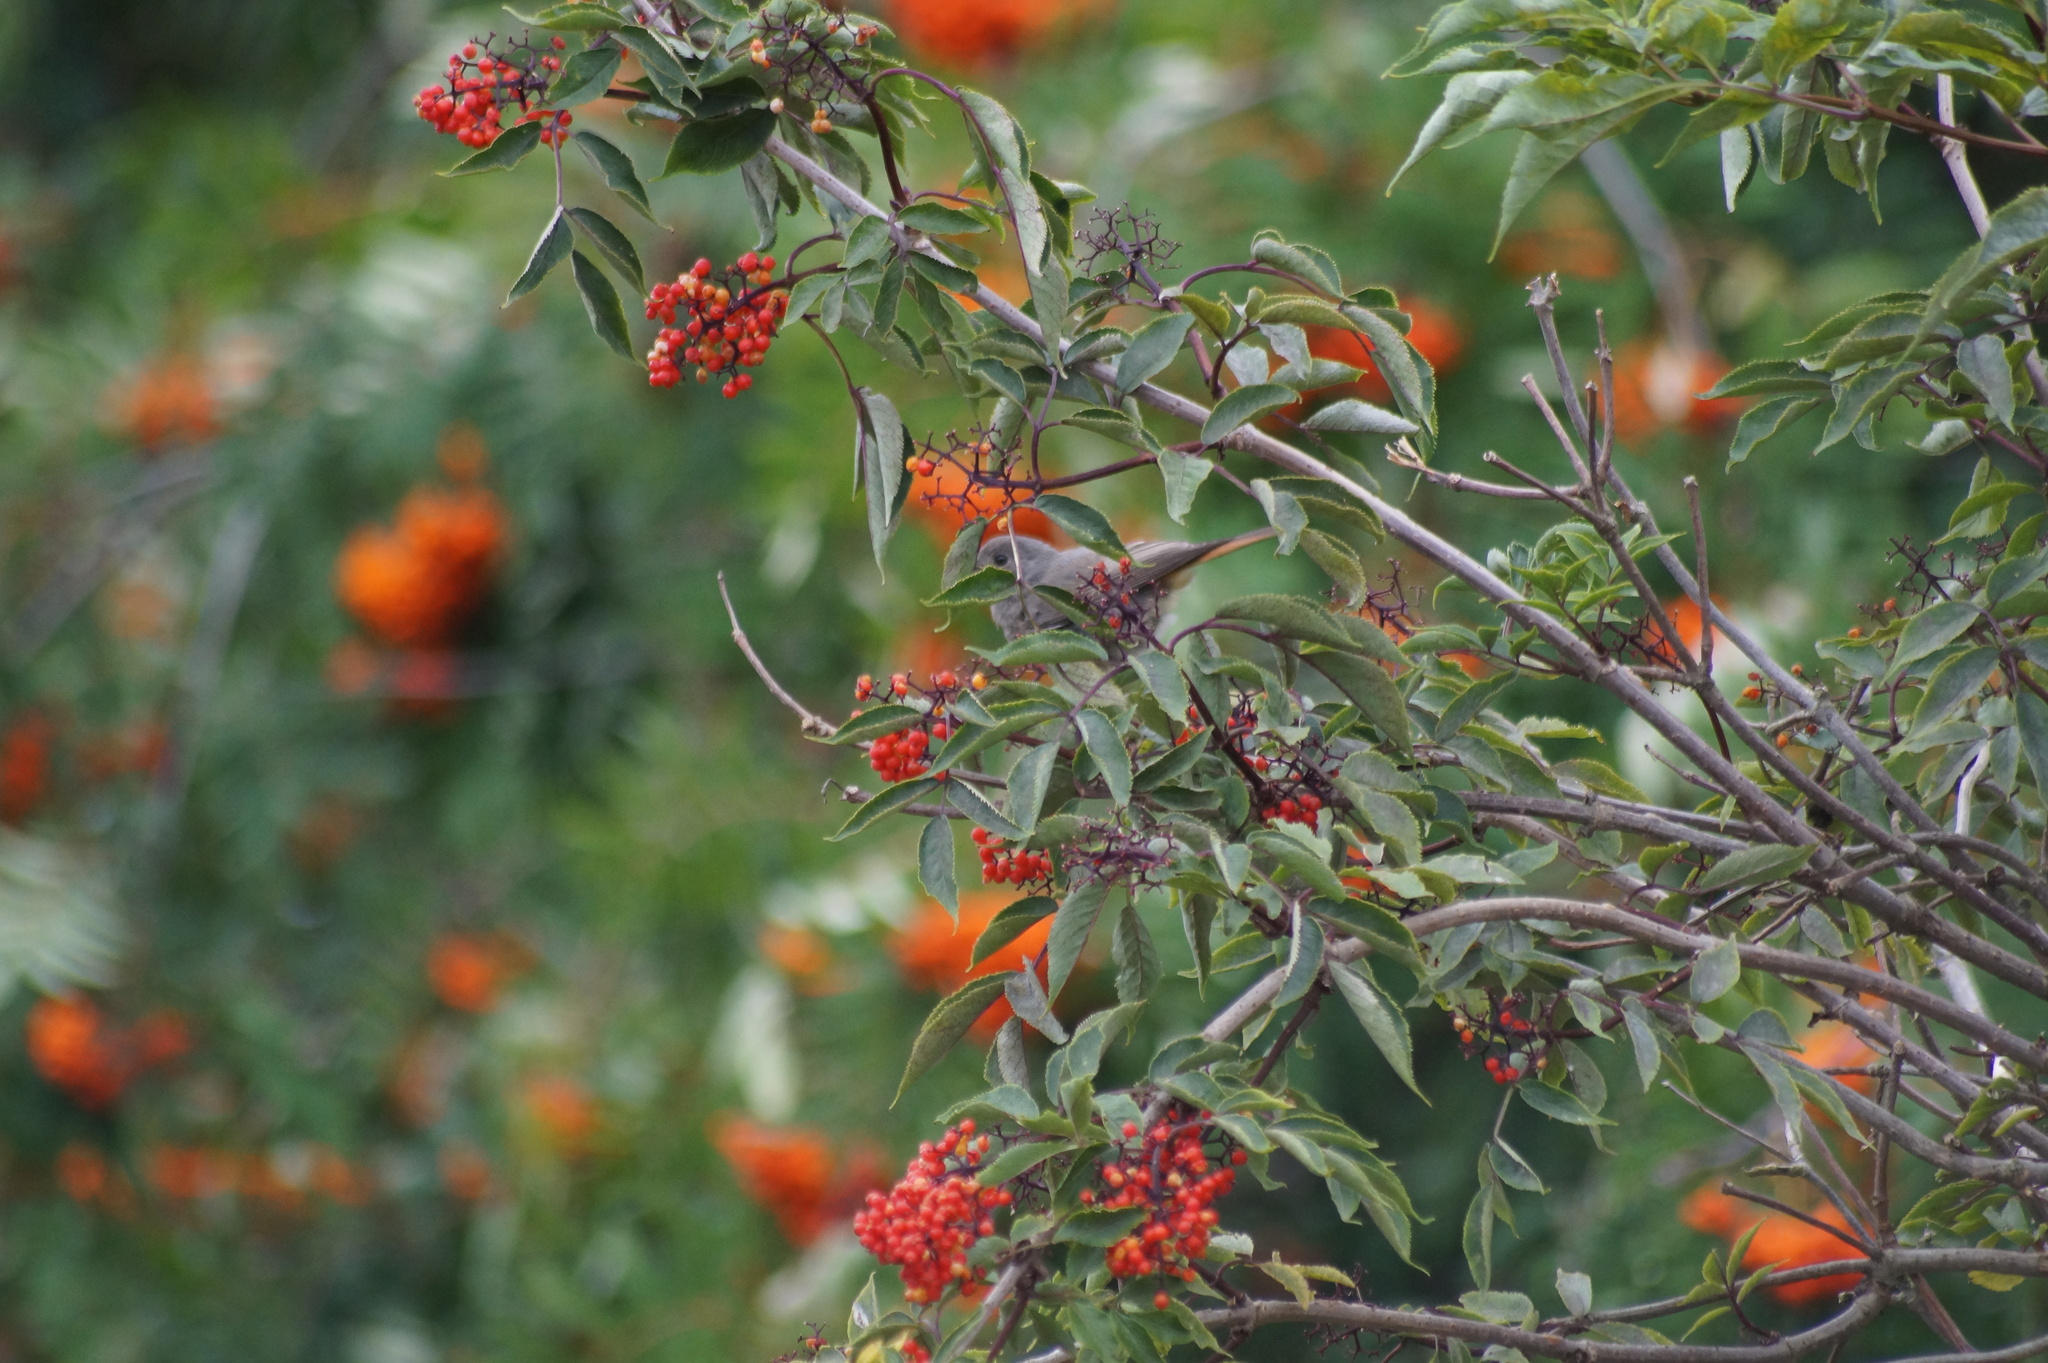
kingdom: Animalia
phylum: Chordata
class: Aves
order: Passeriformes
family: Muscicapidae
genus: Phoenicurus
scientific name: Phoenicurus ochruros
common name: Black redstart
